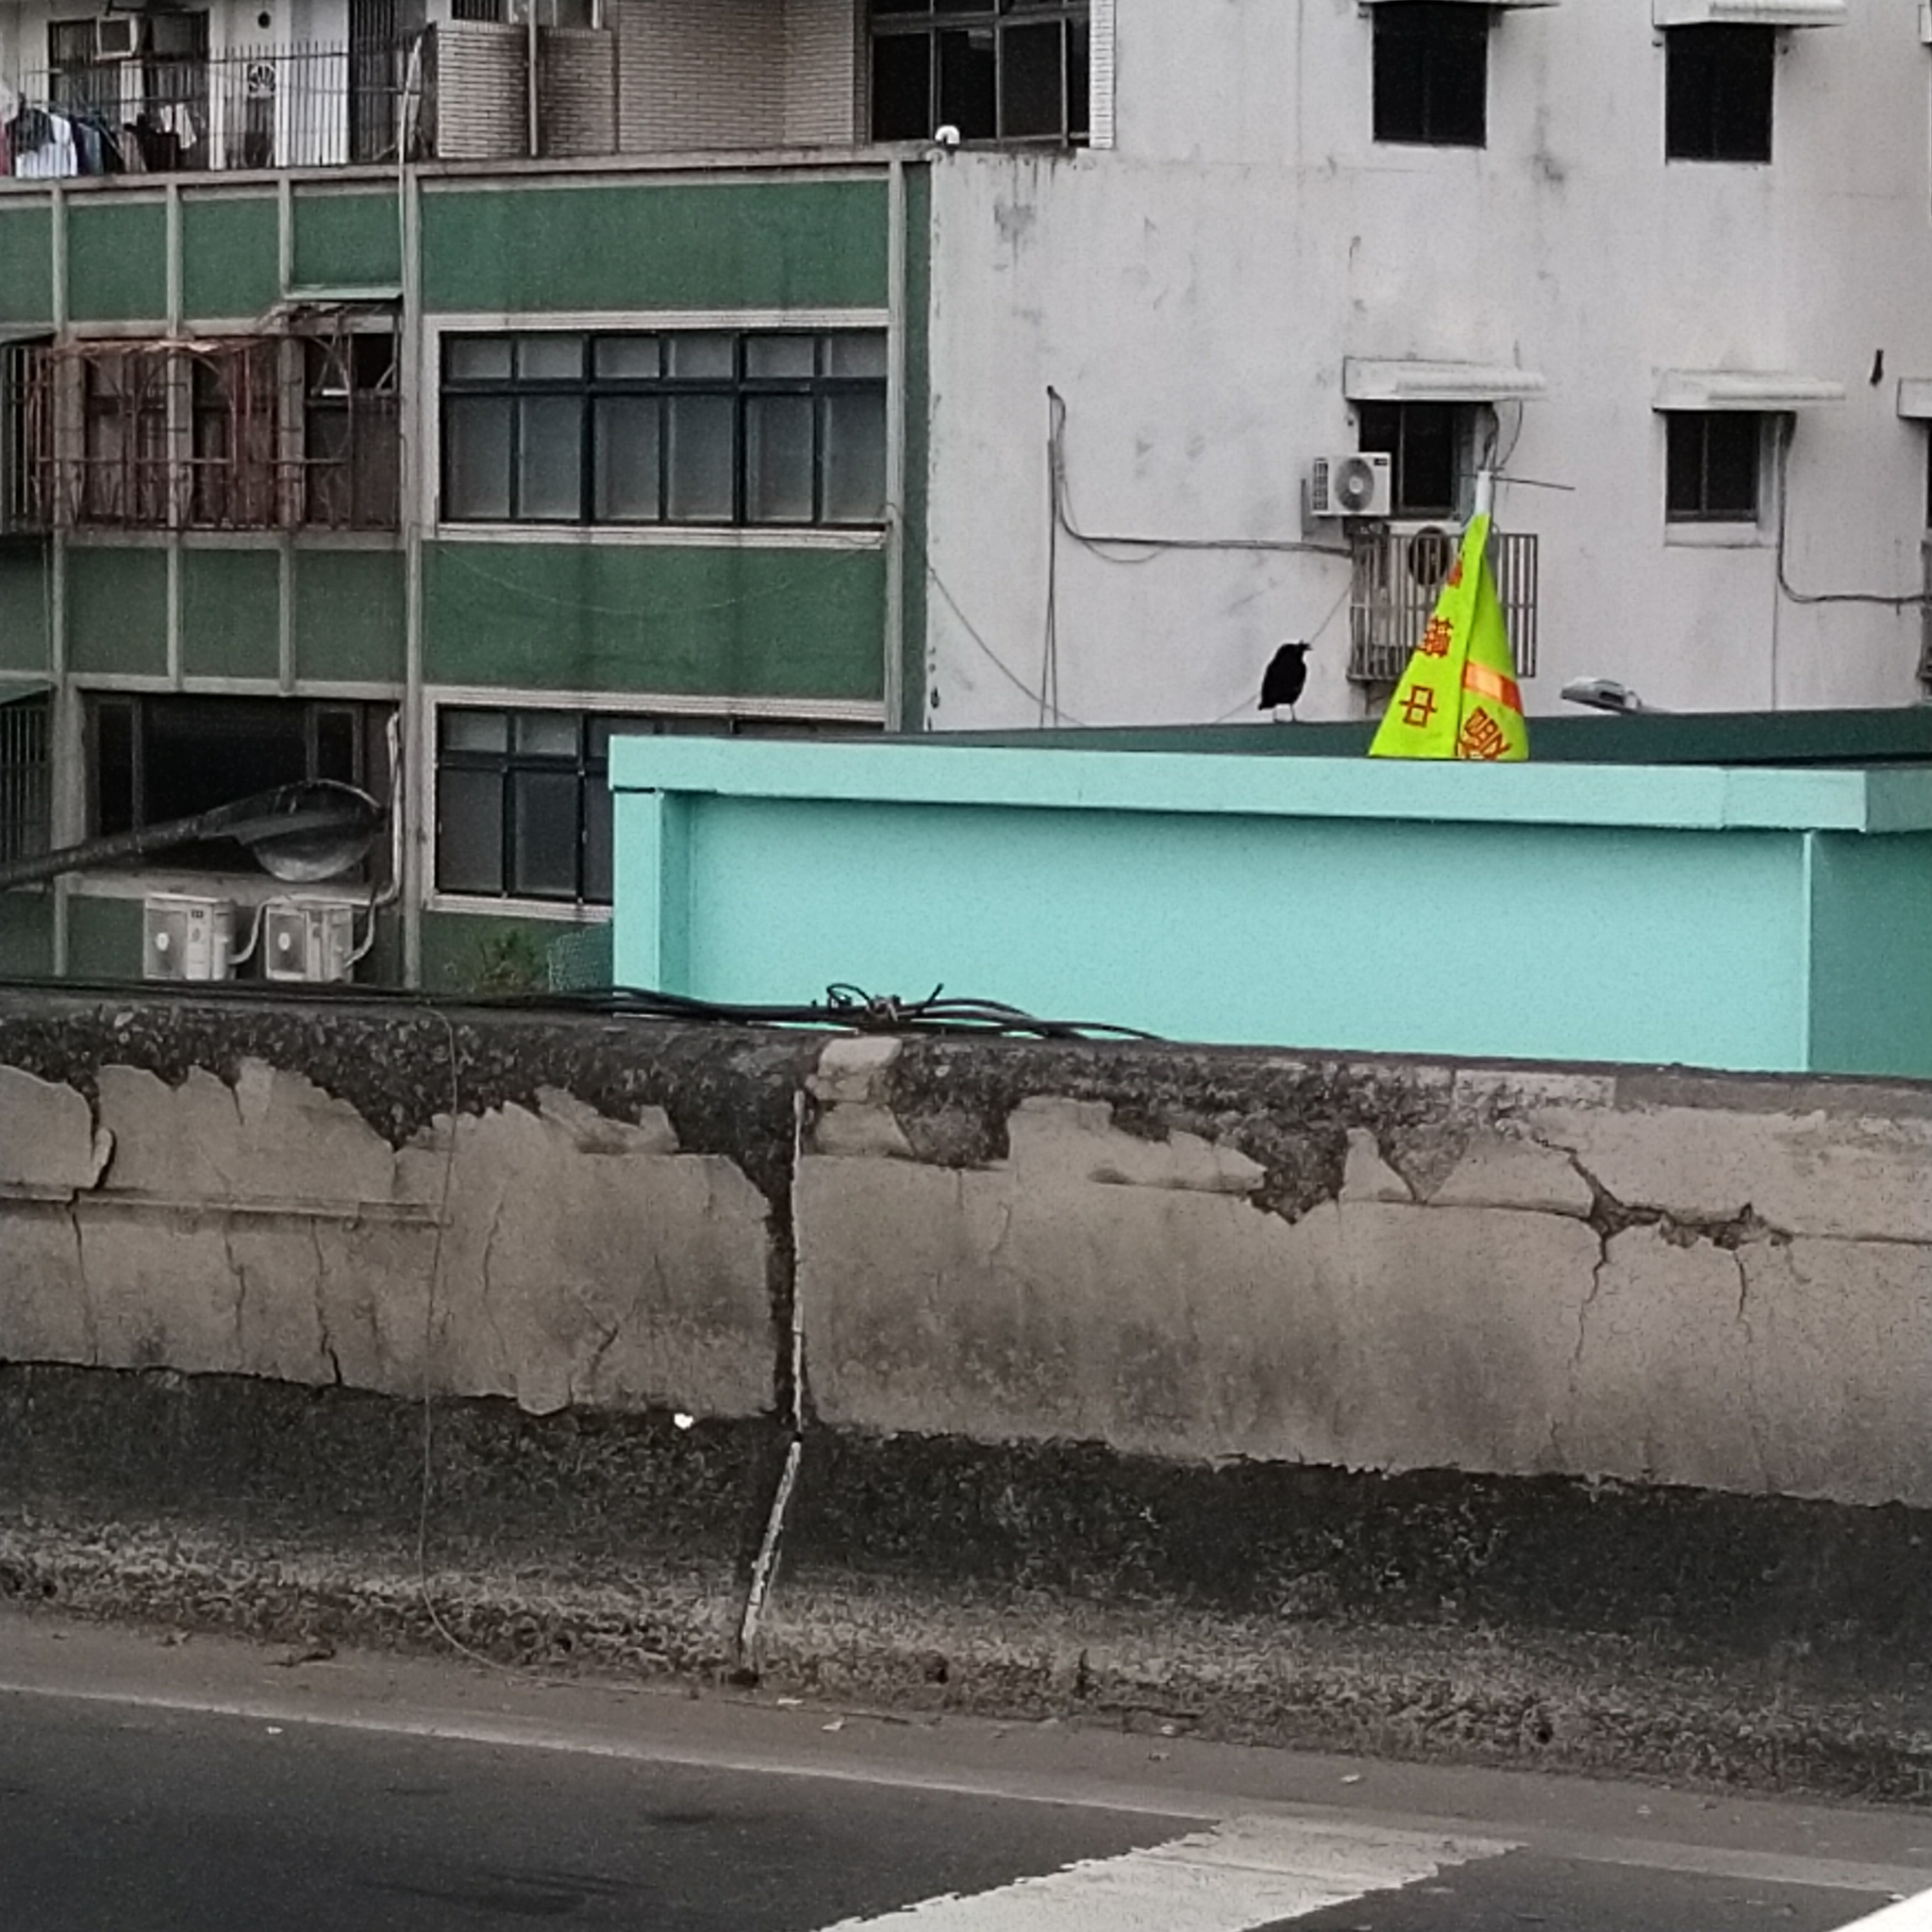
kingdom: Animalia
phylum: Chordata
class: Aves
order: Passeriformes
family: Sturnidae
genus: Acridotheres
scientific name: Acridotheres cristatellus
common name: Crested myna
